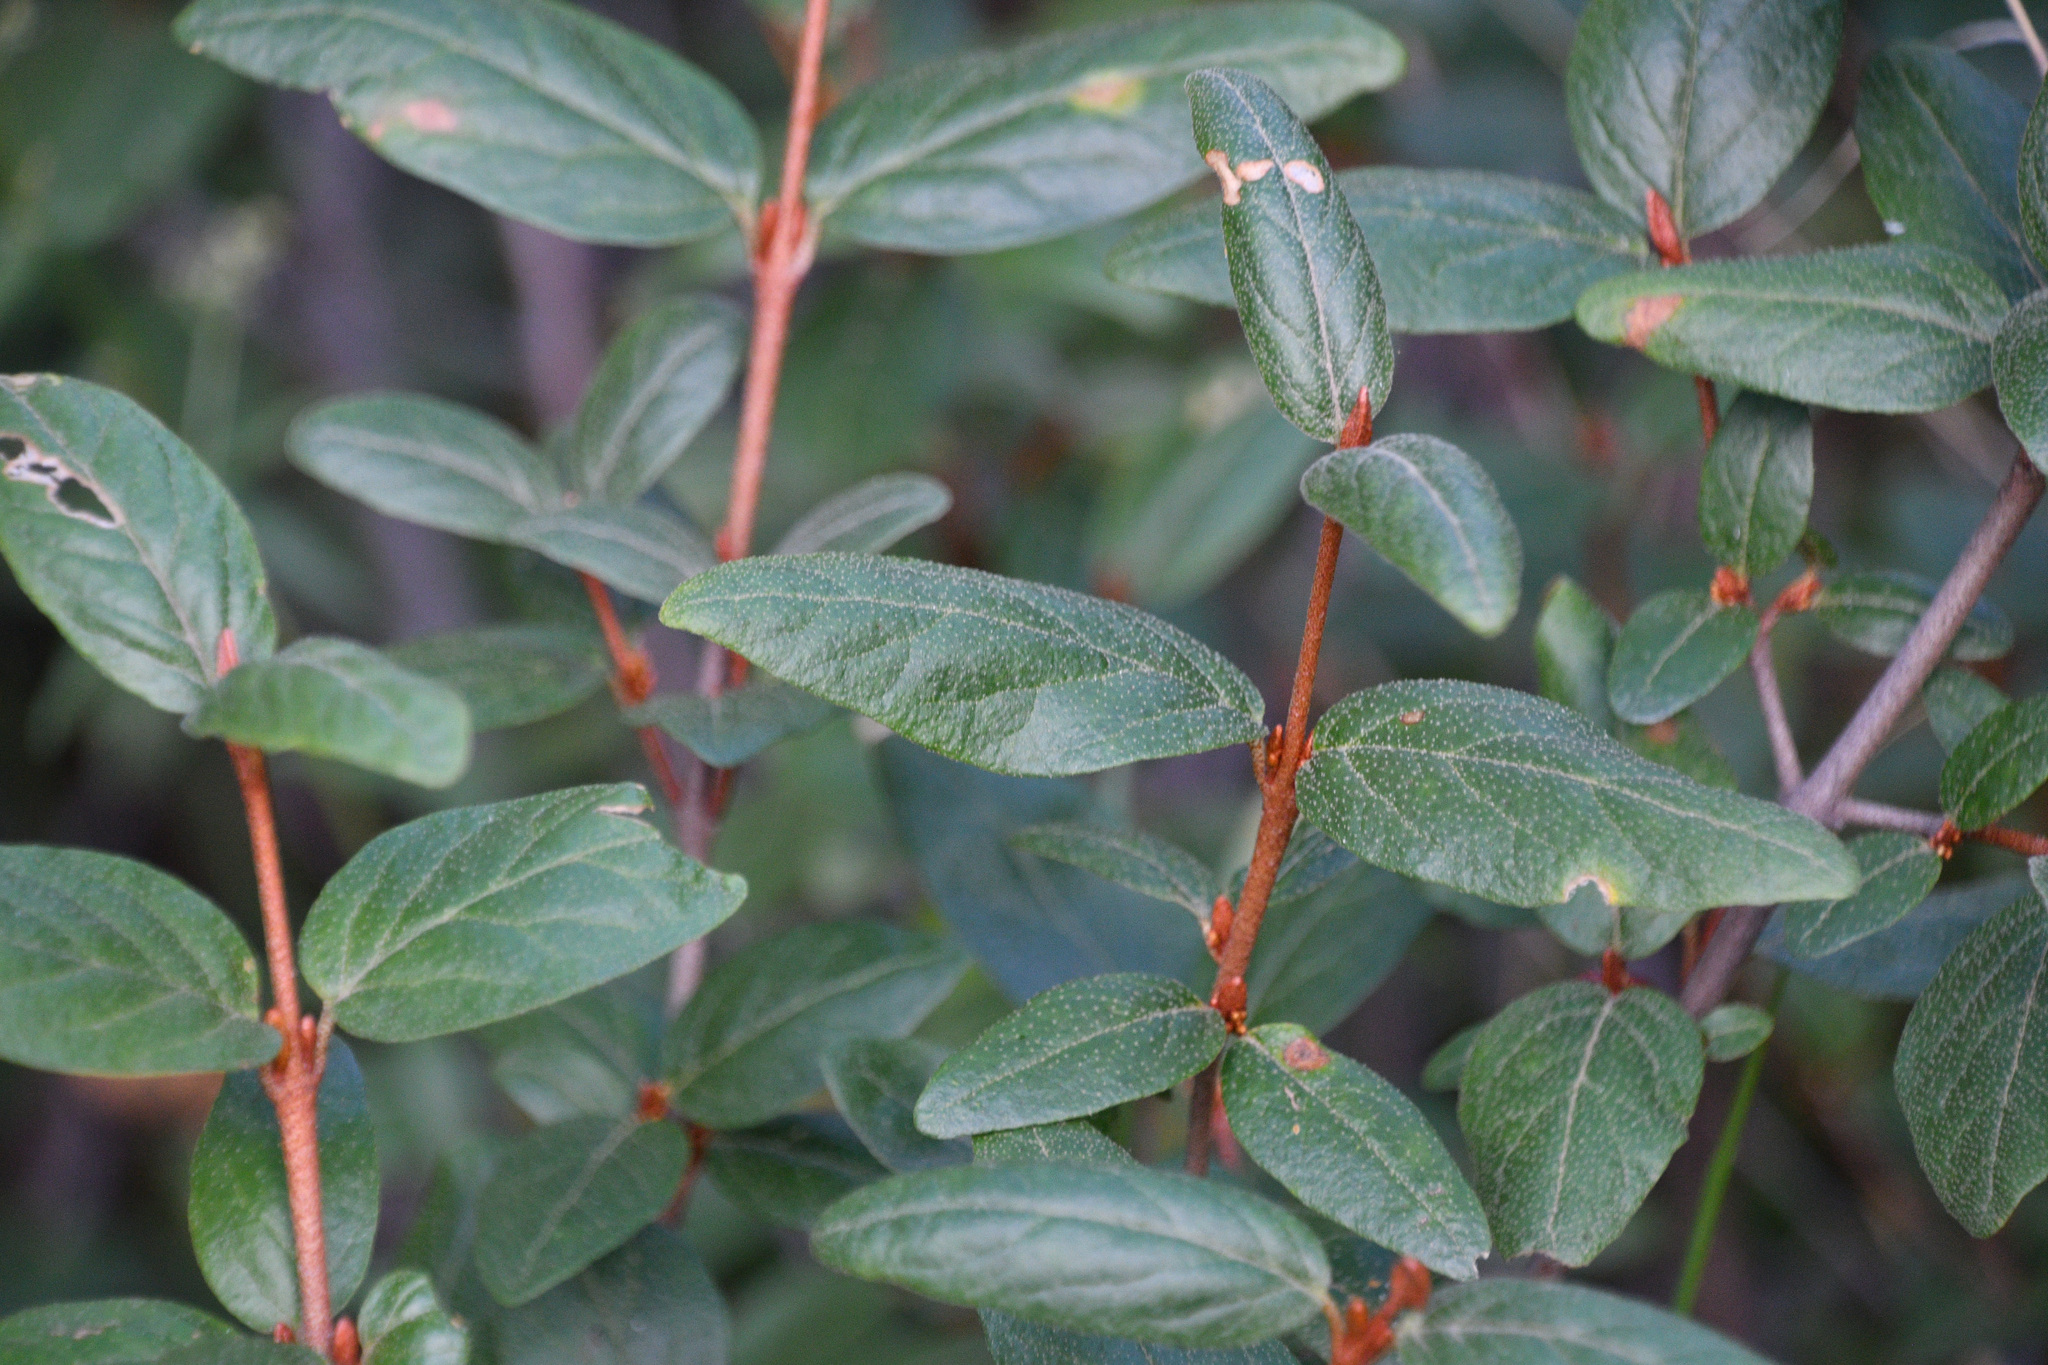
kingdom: Plantae
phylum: Tracheophyta
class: Magnoliopsida
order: Rosales
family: Elaeagnaceae
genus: Shepherdia
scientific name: Shepherdia canadensis
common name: Soapberry
